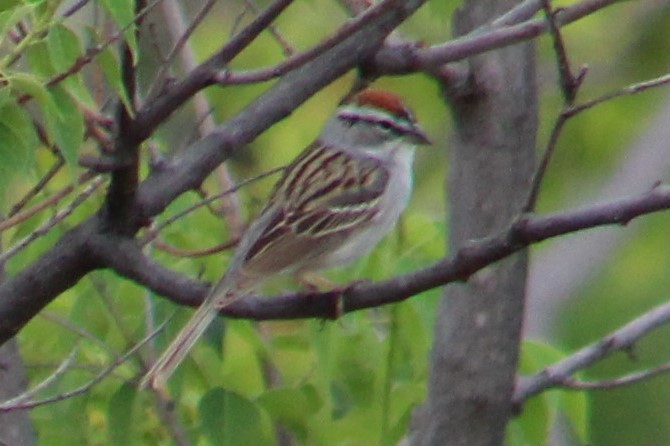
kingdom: Animalia
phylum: Chordata
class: Aves
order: Passeriformes
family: Passerellidae
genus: Spizella
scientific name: Spizella passerina
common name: Chipping sparrow
